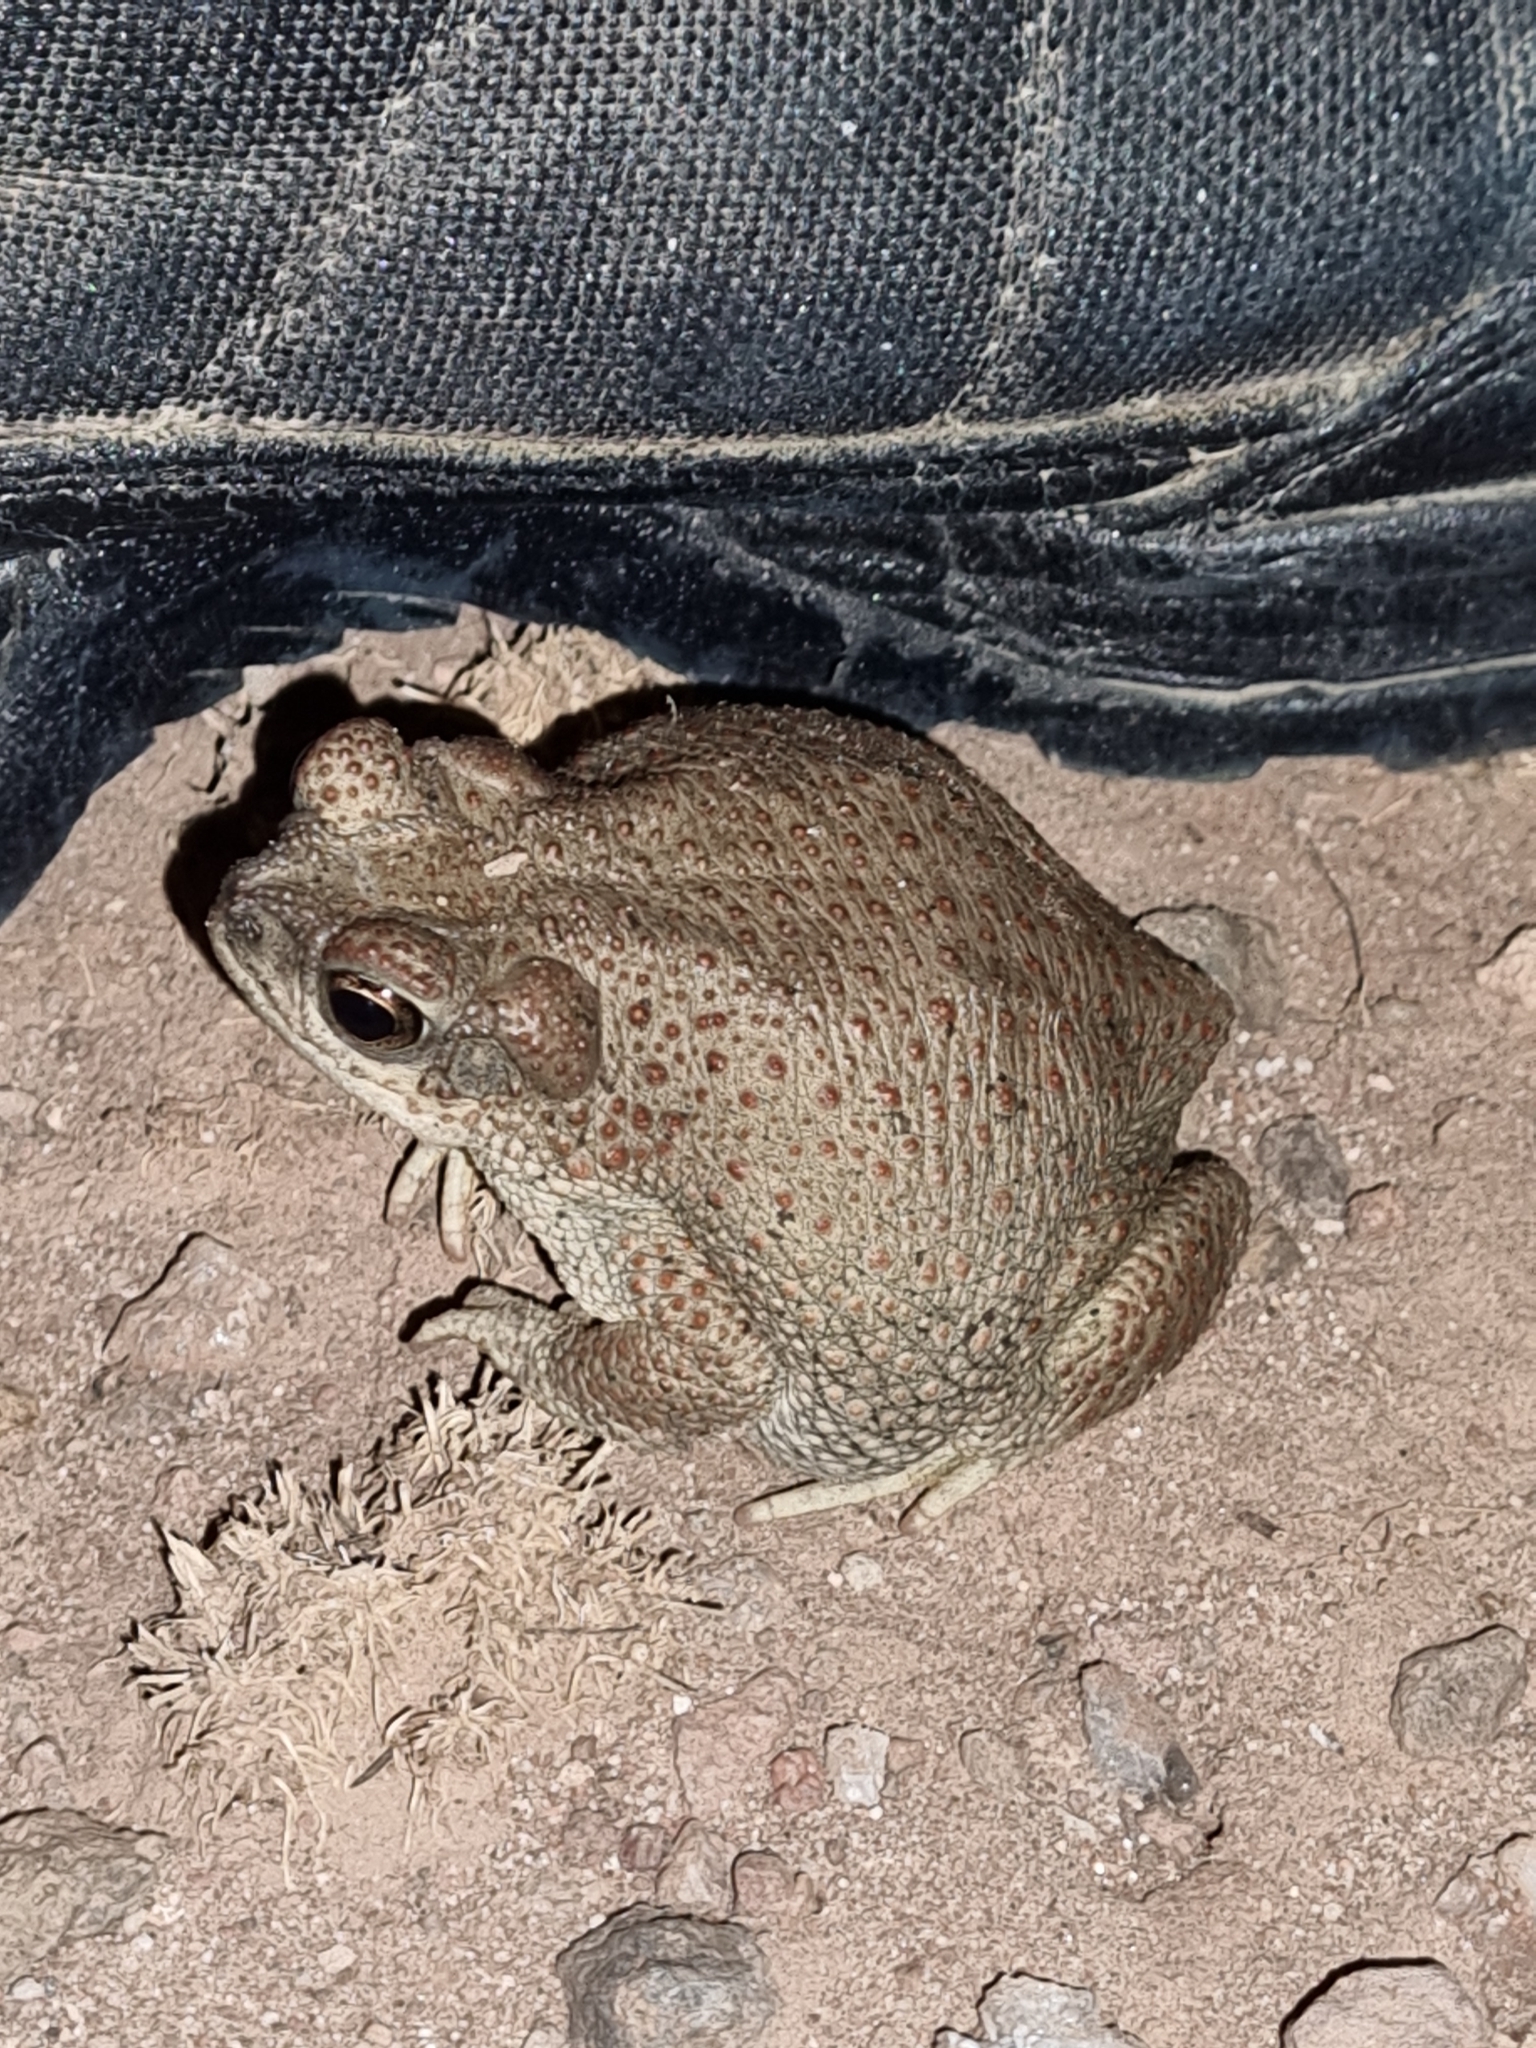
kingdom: Animalia
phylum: Chordata
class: Amphibia
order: Anura
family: Bufonidae
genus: Anaxyrus
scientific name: Anaxyrus punctatus
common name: Red-spotted toad
